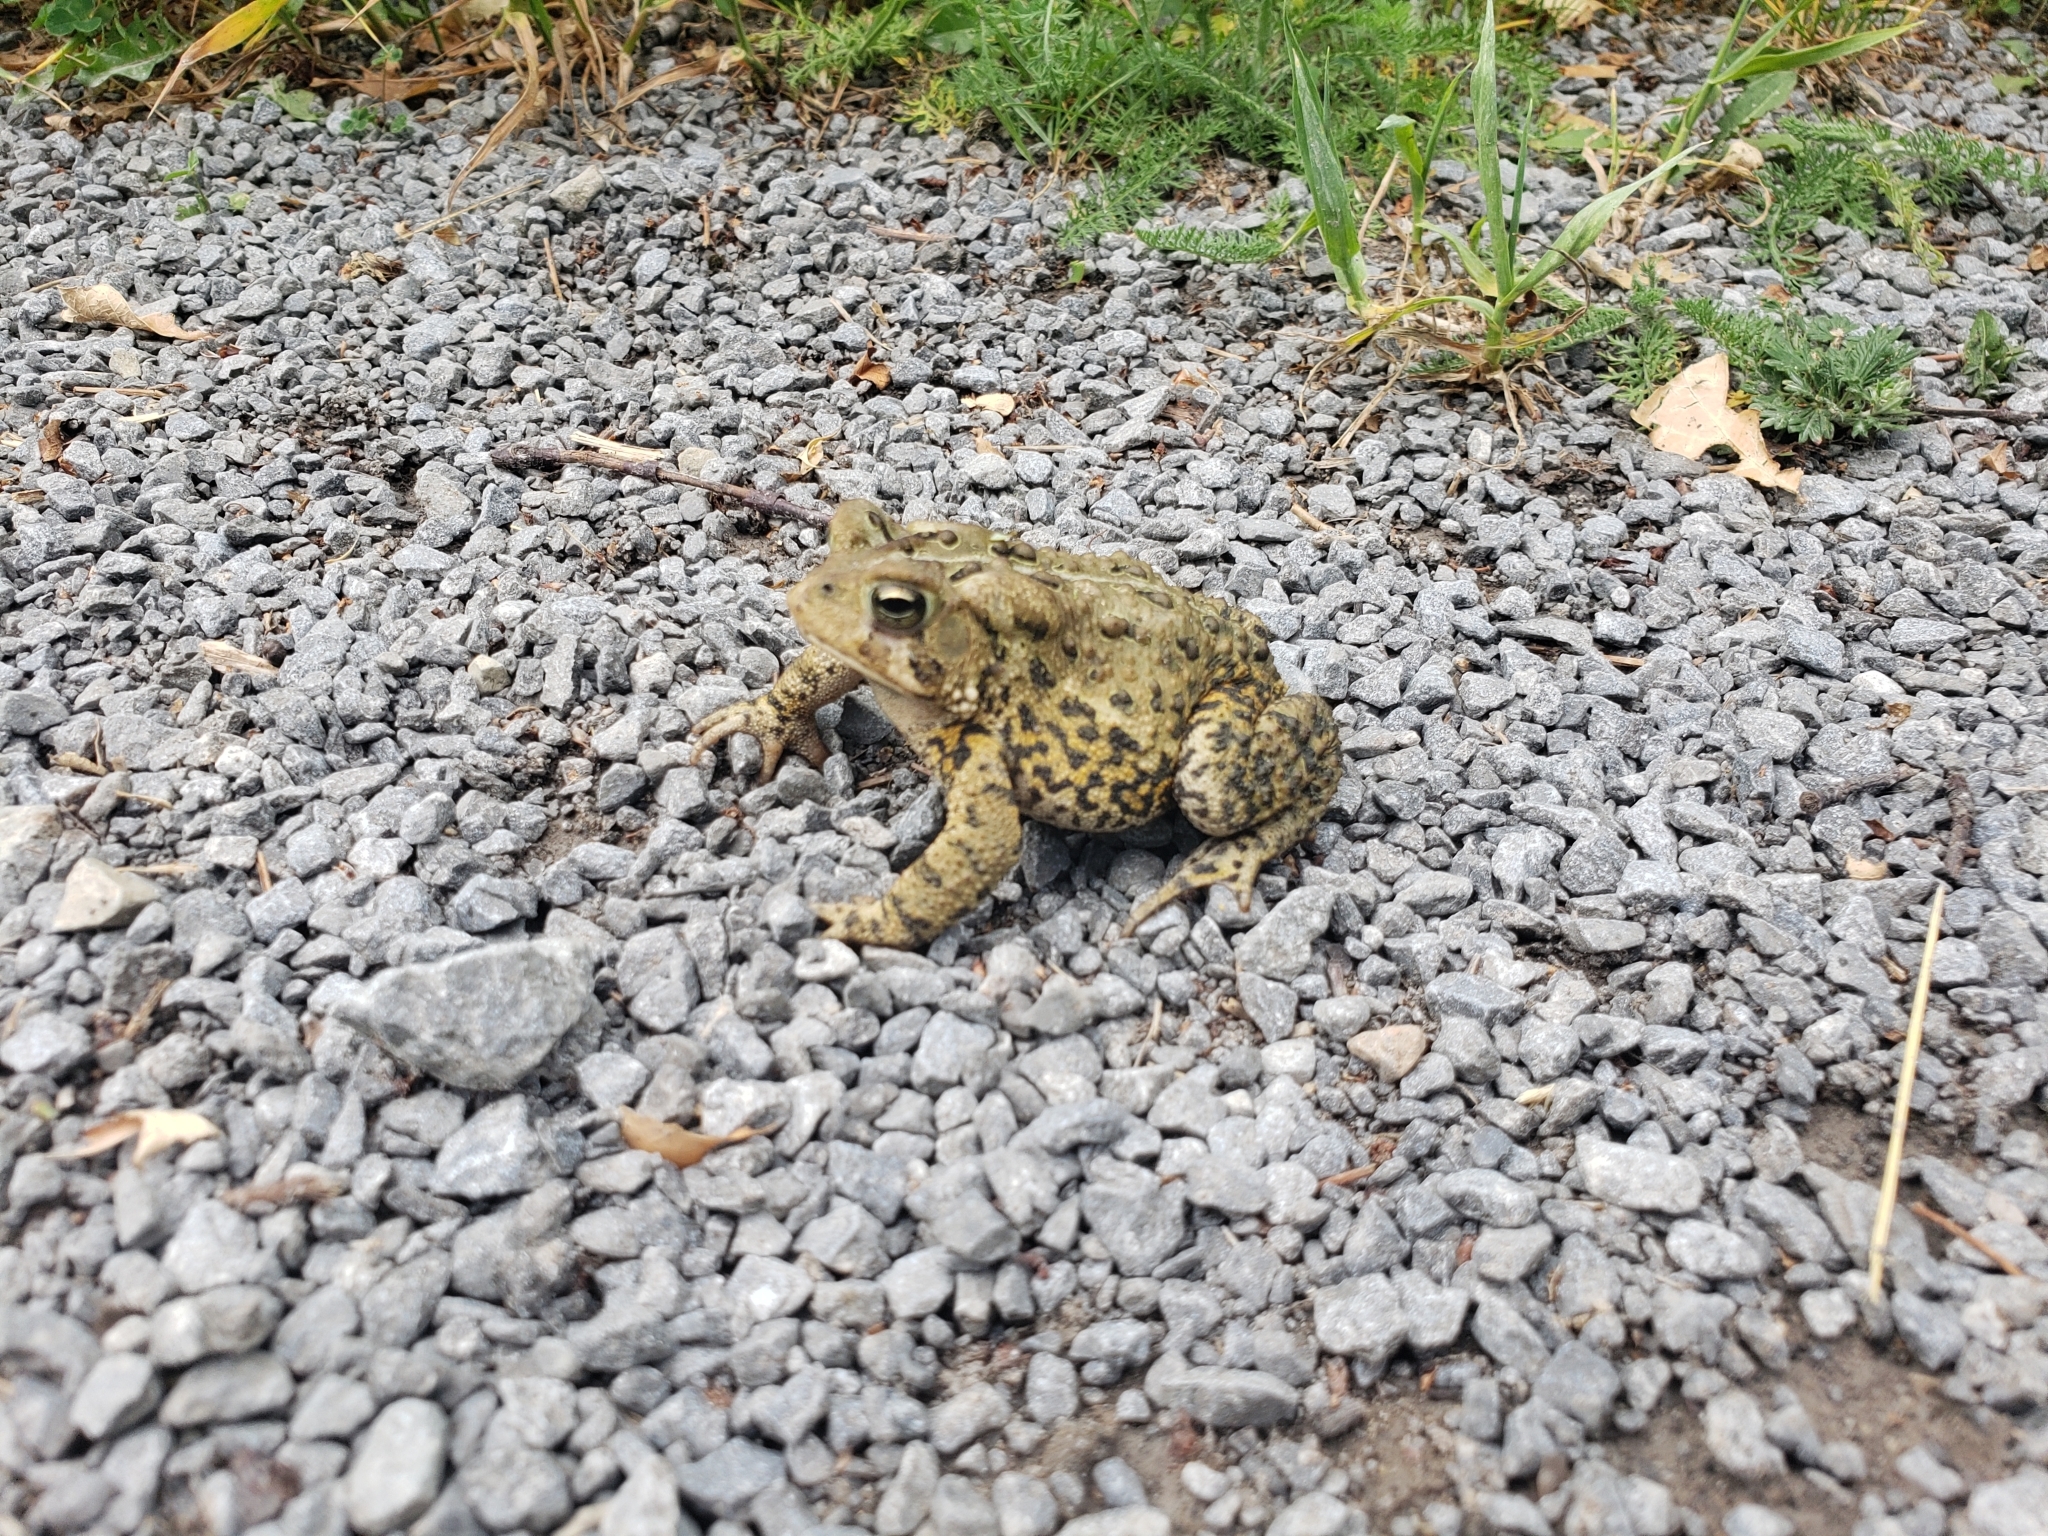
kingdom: Animalia
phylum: Chordata
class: Amphibia
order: Anura
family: Bufonidae
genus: Anaxyrus
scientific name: Anaxyrus americanus
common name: American toad
